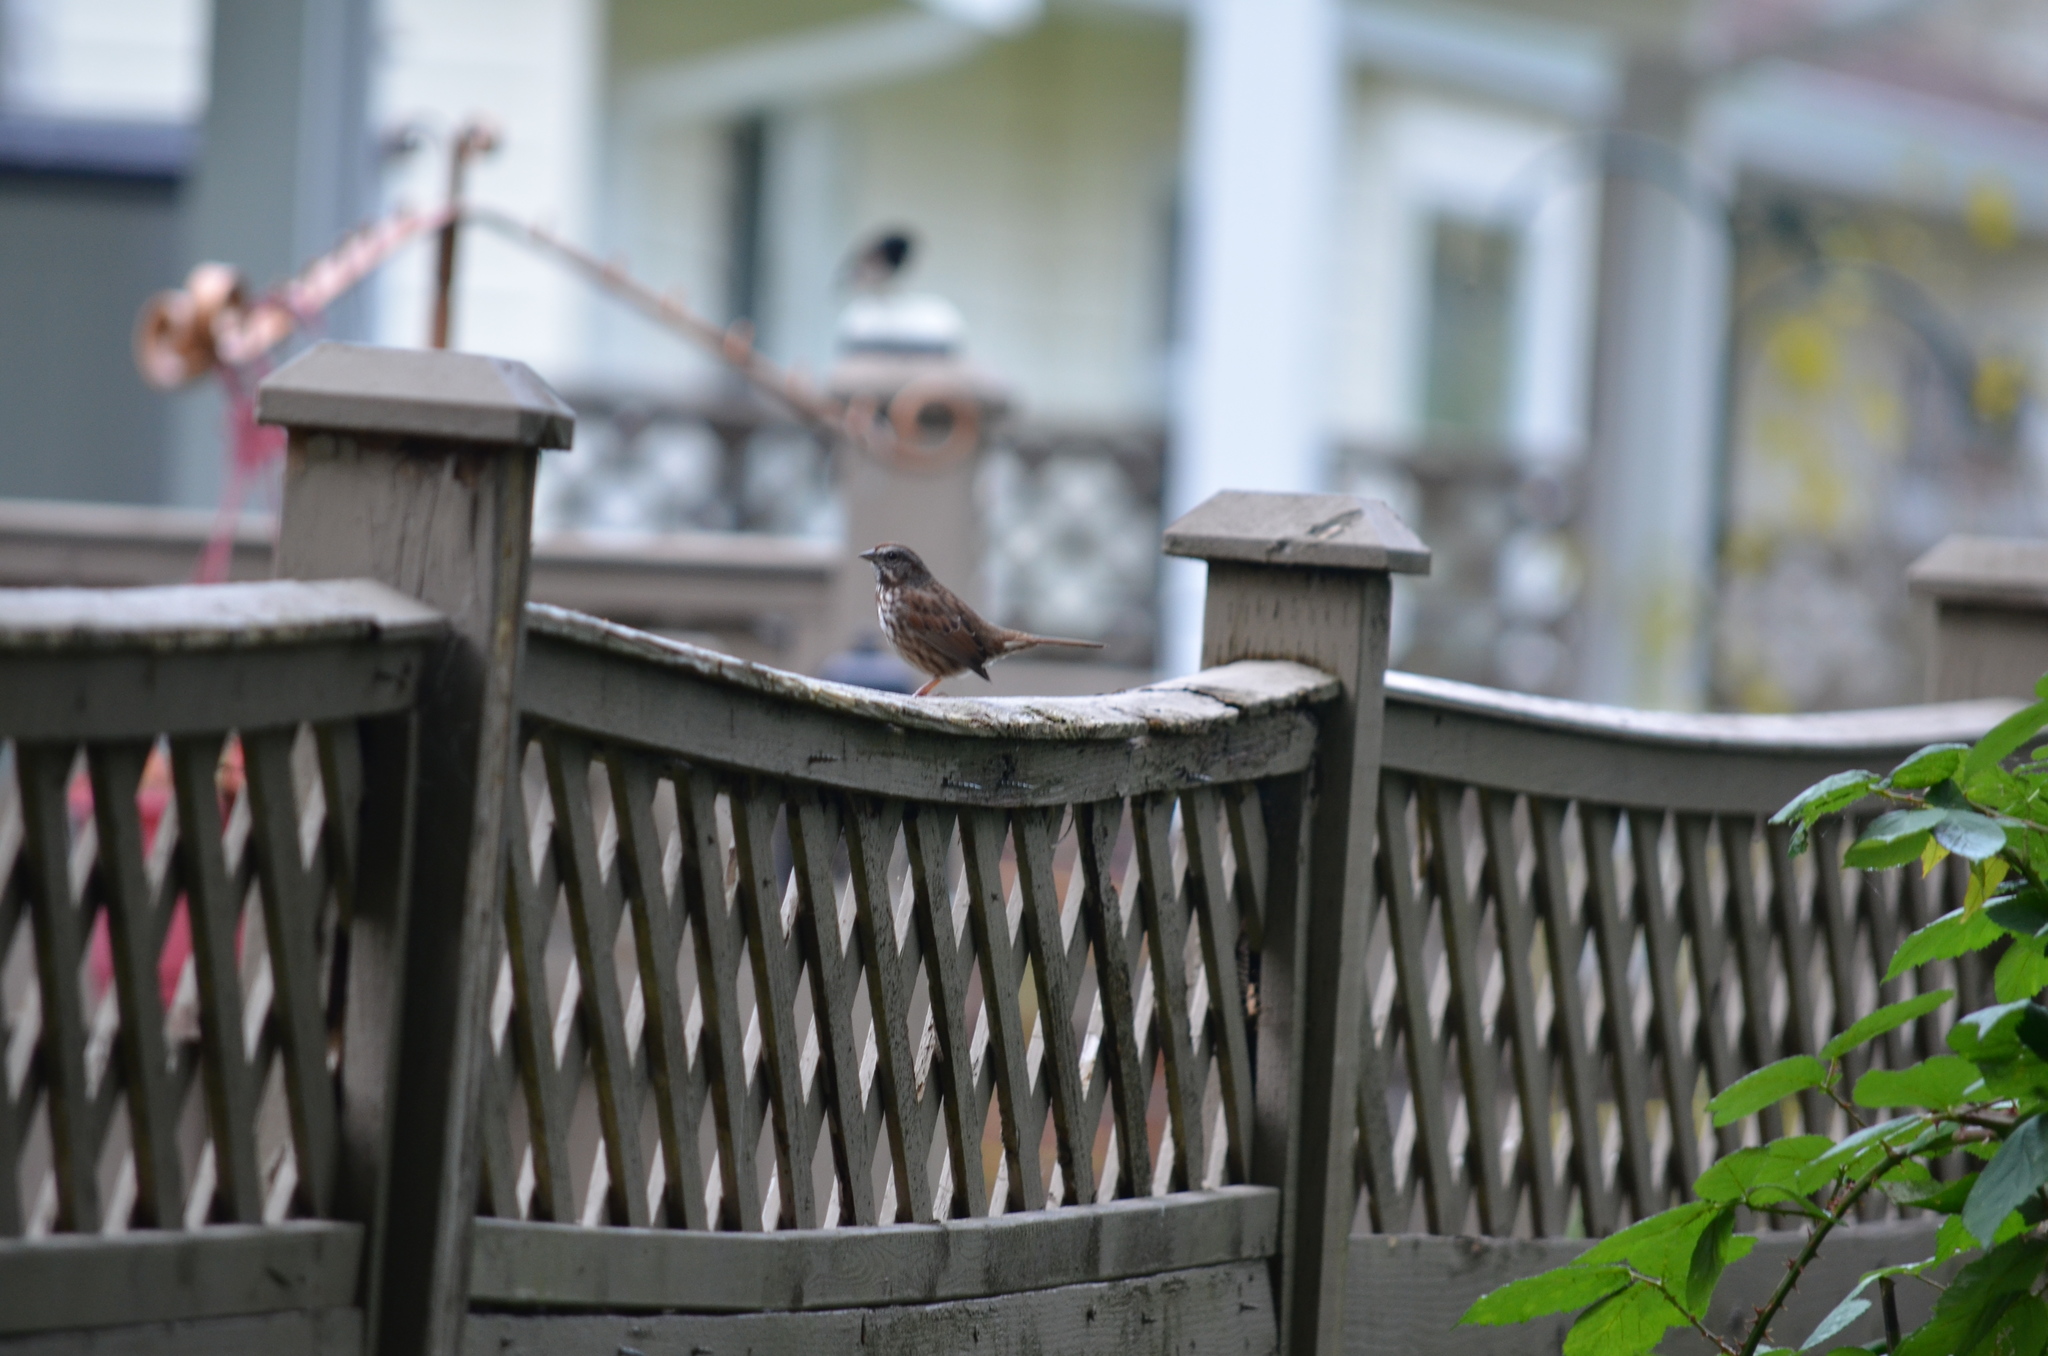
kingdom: Animalia
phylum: Chordata
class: Aves
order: Passeriformes
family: Passerellidae
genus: Melospiza
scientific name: Melospiza melodia
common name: Song sparrow
